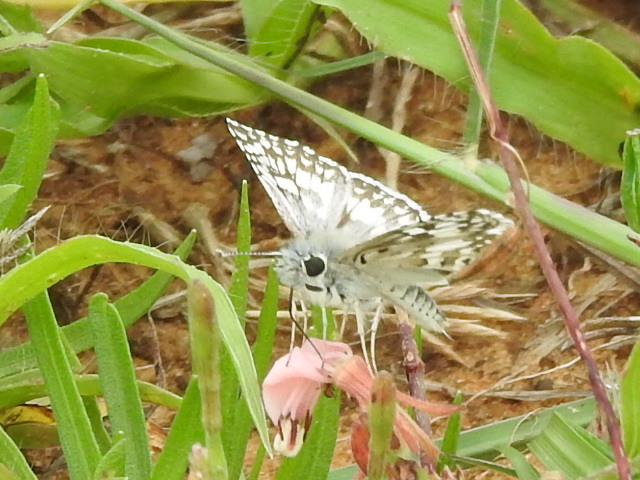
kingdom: Animalia
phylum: Arthropoda
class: Insecta
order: Lepidoptera
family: Hesperiidae
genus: Burnsius
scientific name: Burnsius
